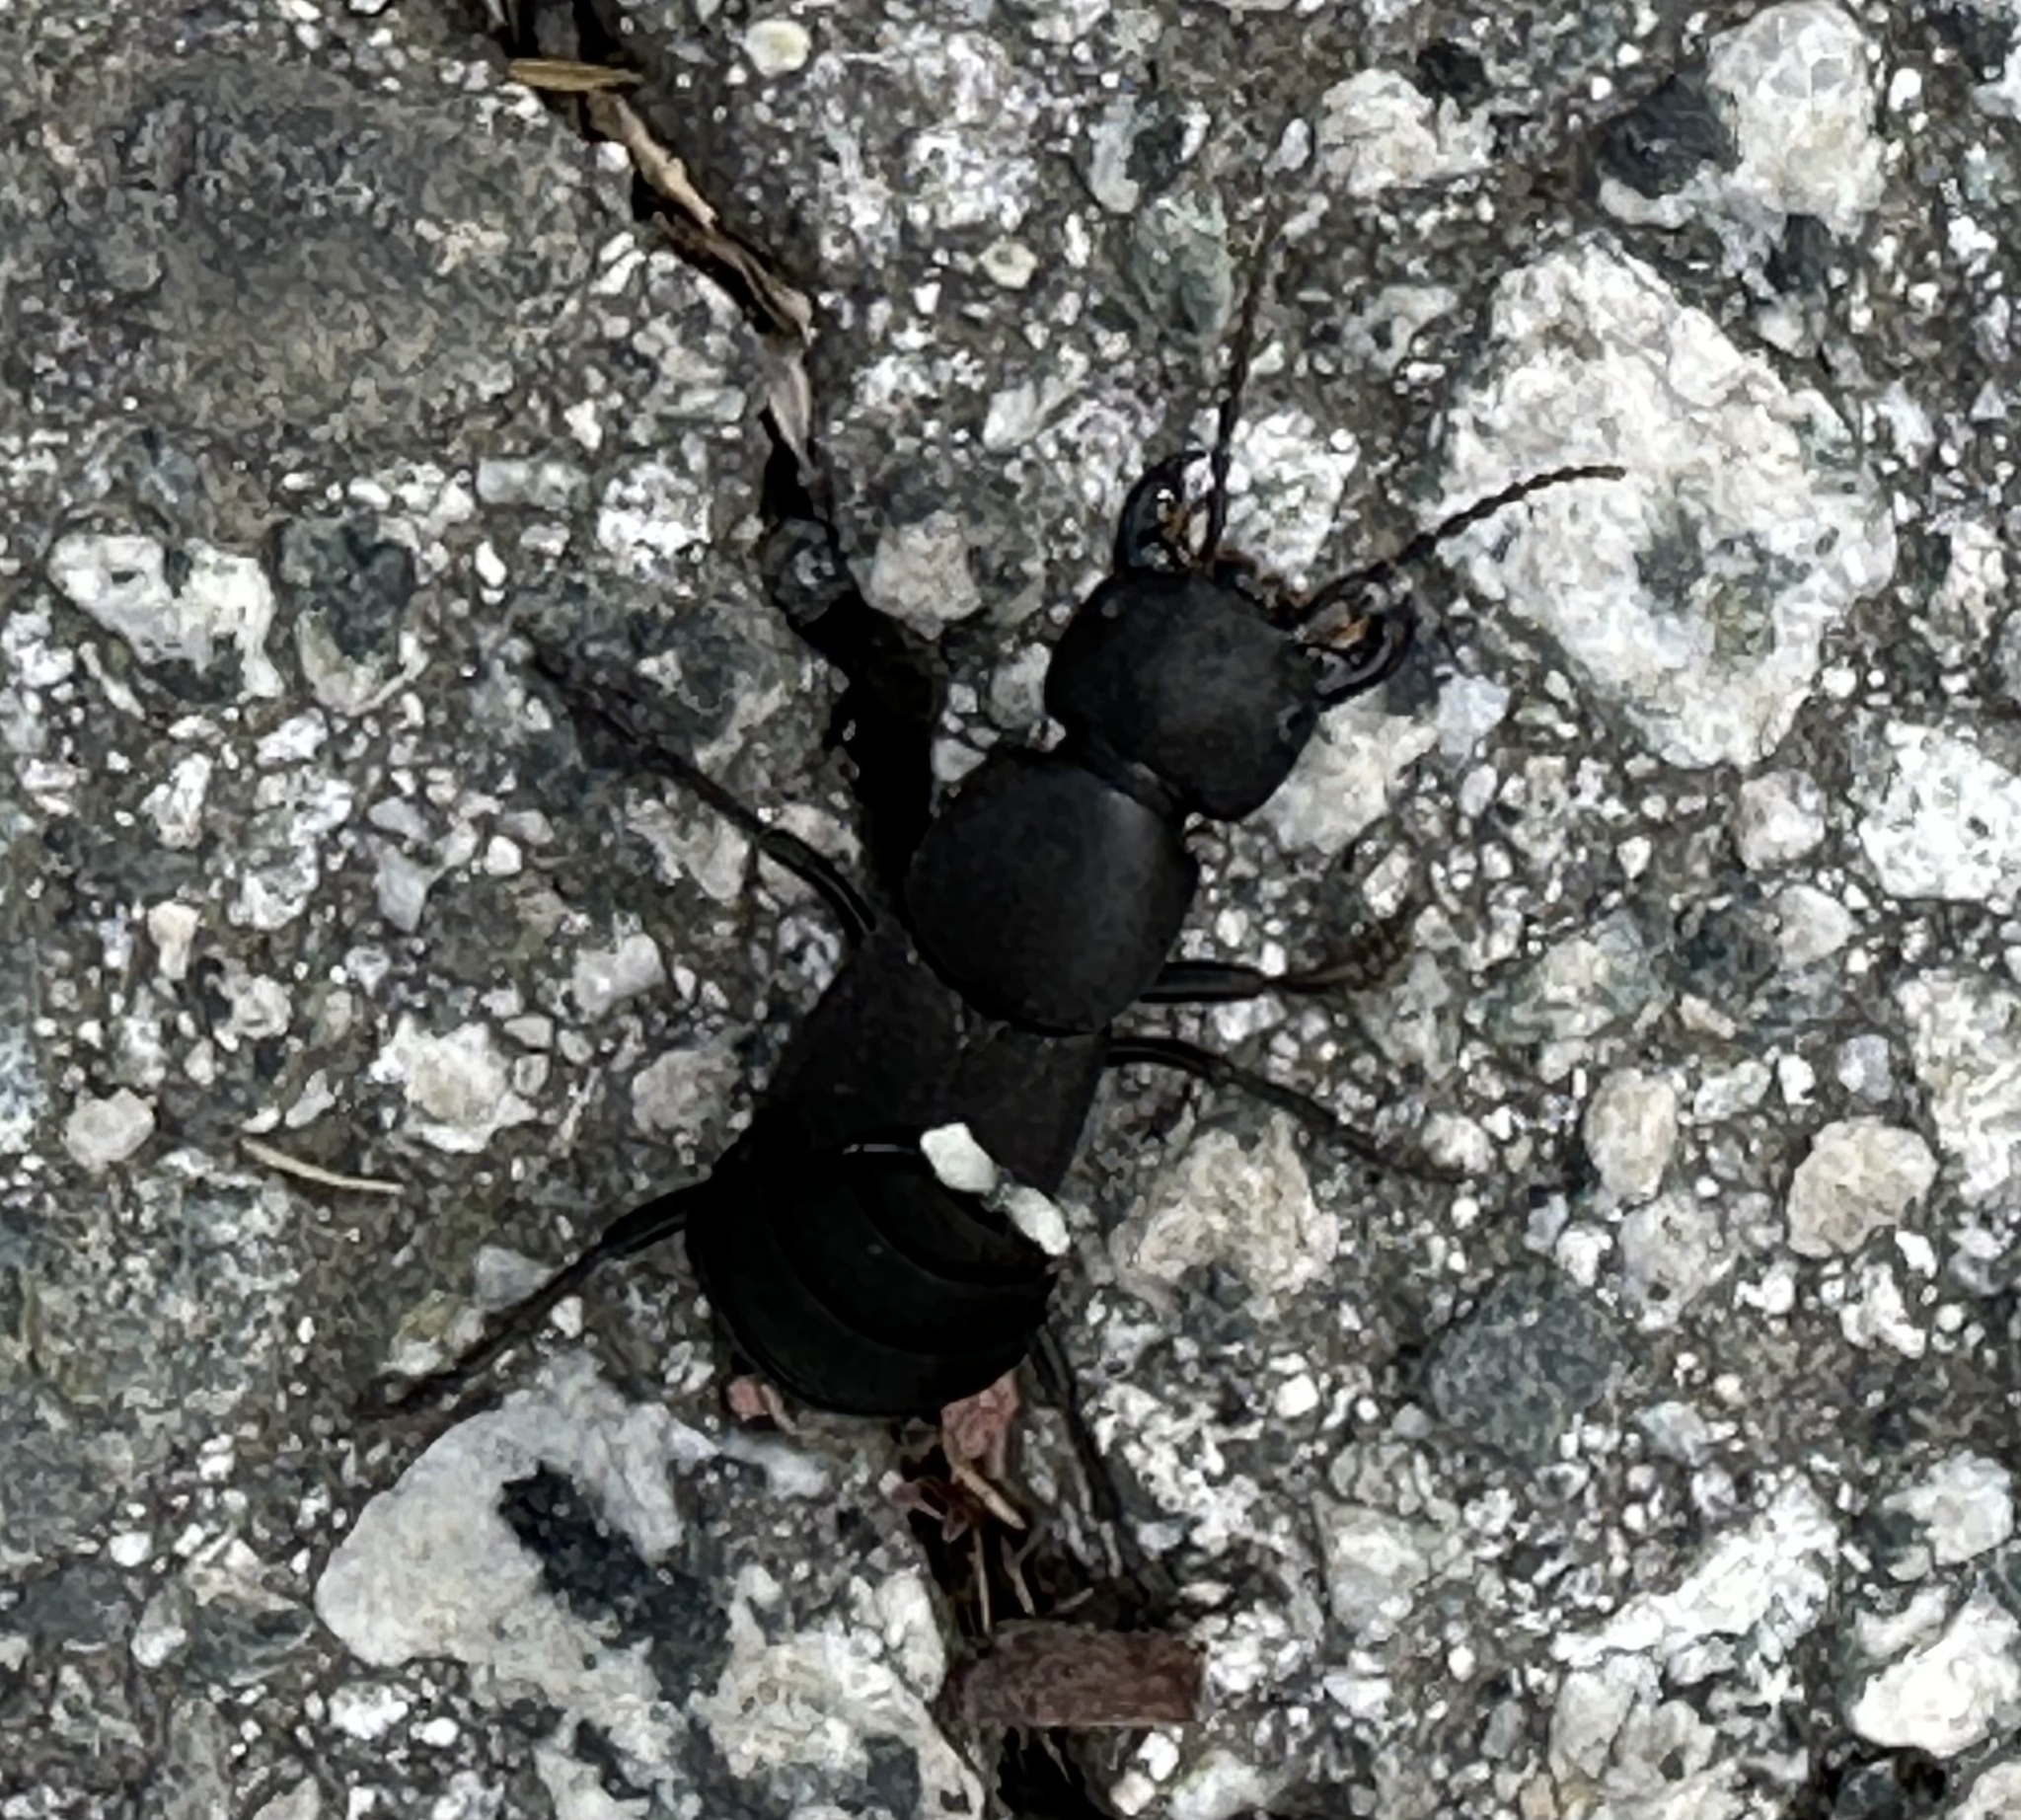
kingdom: Animalia
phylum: Arthropoda
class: Insecta
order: Coleoptera
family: Staphylinidae
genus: Ocypus
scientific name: Ocypus olens
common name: Devil's coach-horse
